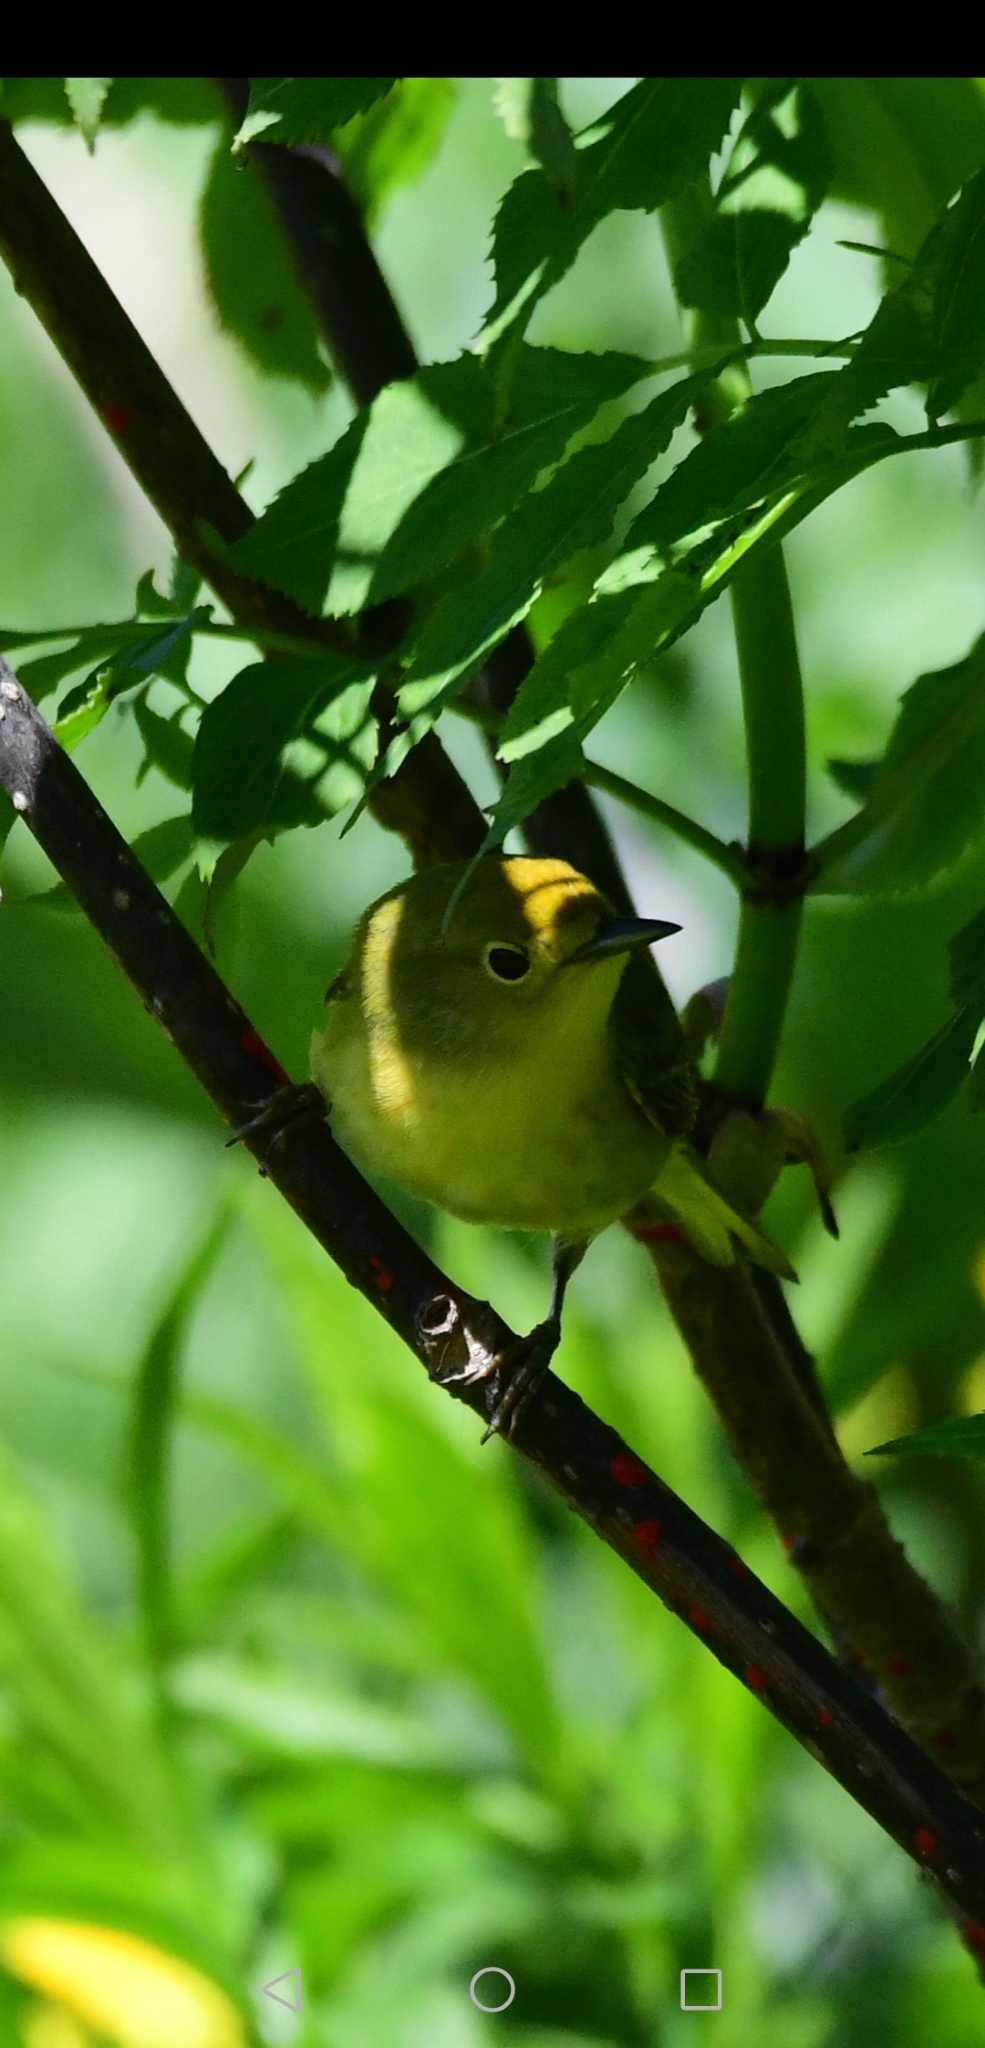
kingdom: Animalia
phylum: Chordata
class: Aves
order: Passeriformes
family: Parulidae
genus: Setophaga
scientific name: Setophaga petechia
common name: Yellow warbler
